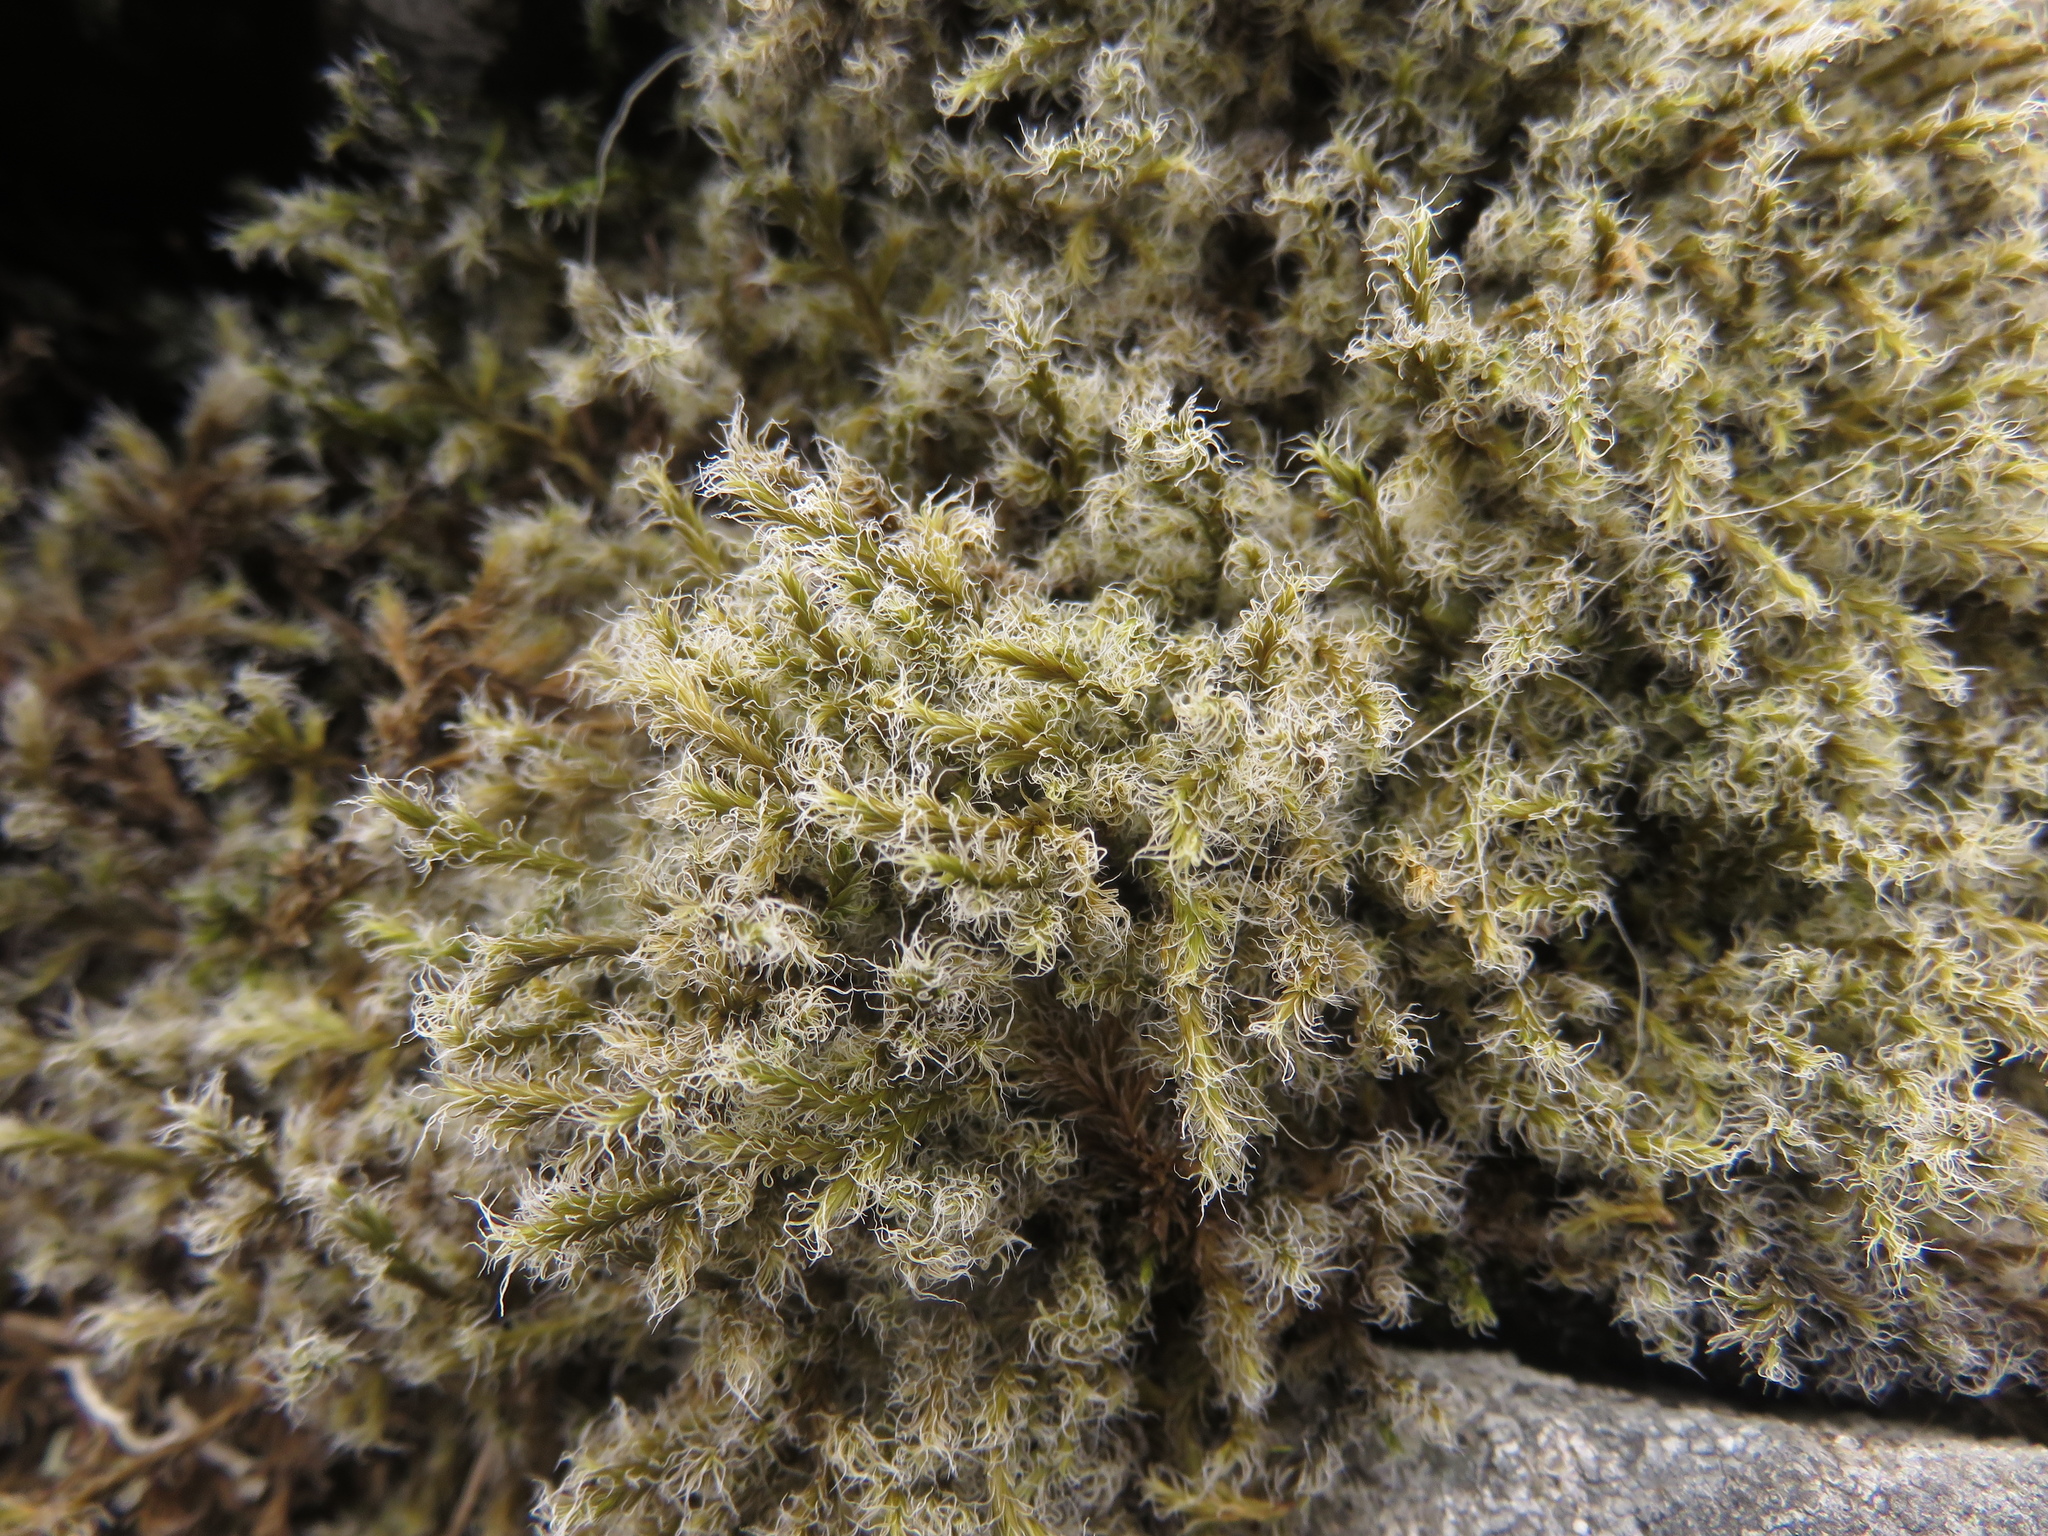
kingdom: Plantae
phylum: Bryophyta
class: Bryopsida
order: Grimmiales
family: Grimmiaceae
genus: Racomitrium
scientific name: Racomitrium lanuginosum
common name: Hoary rock moss
